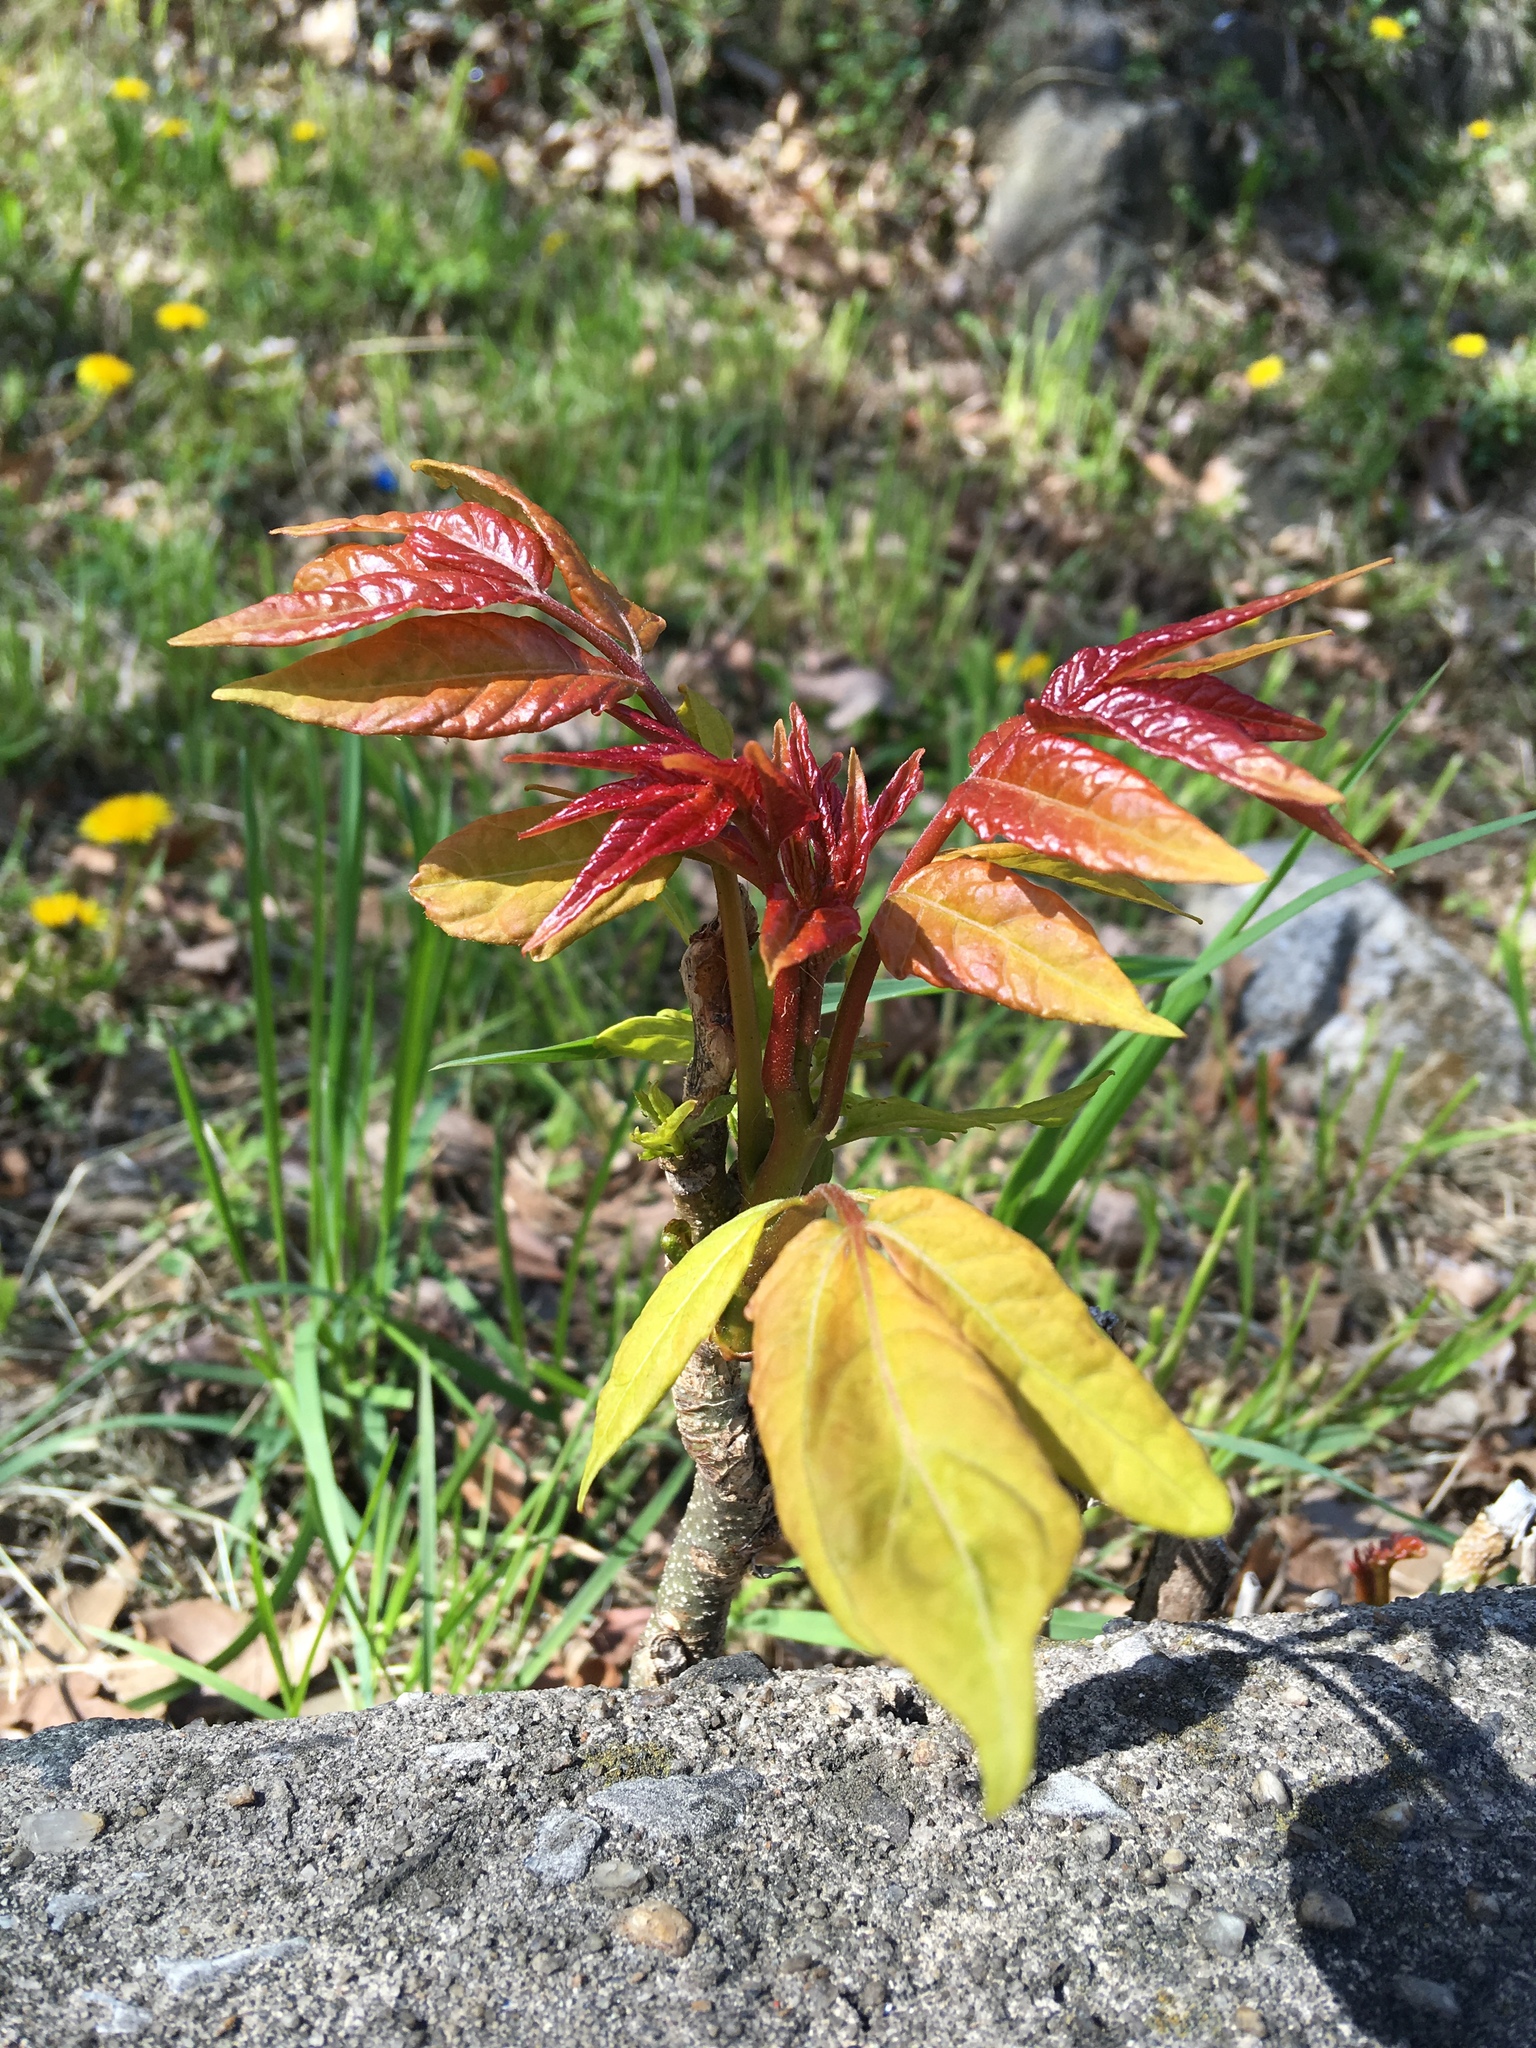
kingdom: Plantae
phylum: Tracheophyta
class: Magnoliopsida
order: Sapindales
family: Simaroubaceae
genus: Ailanthus
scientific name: Ailanthus altissima
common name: Tree-of-heaven
